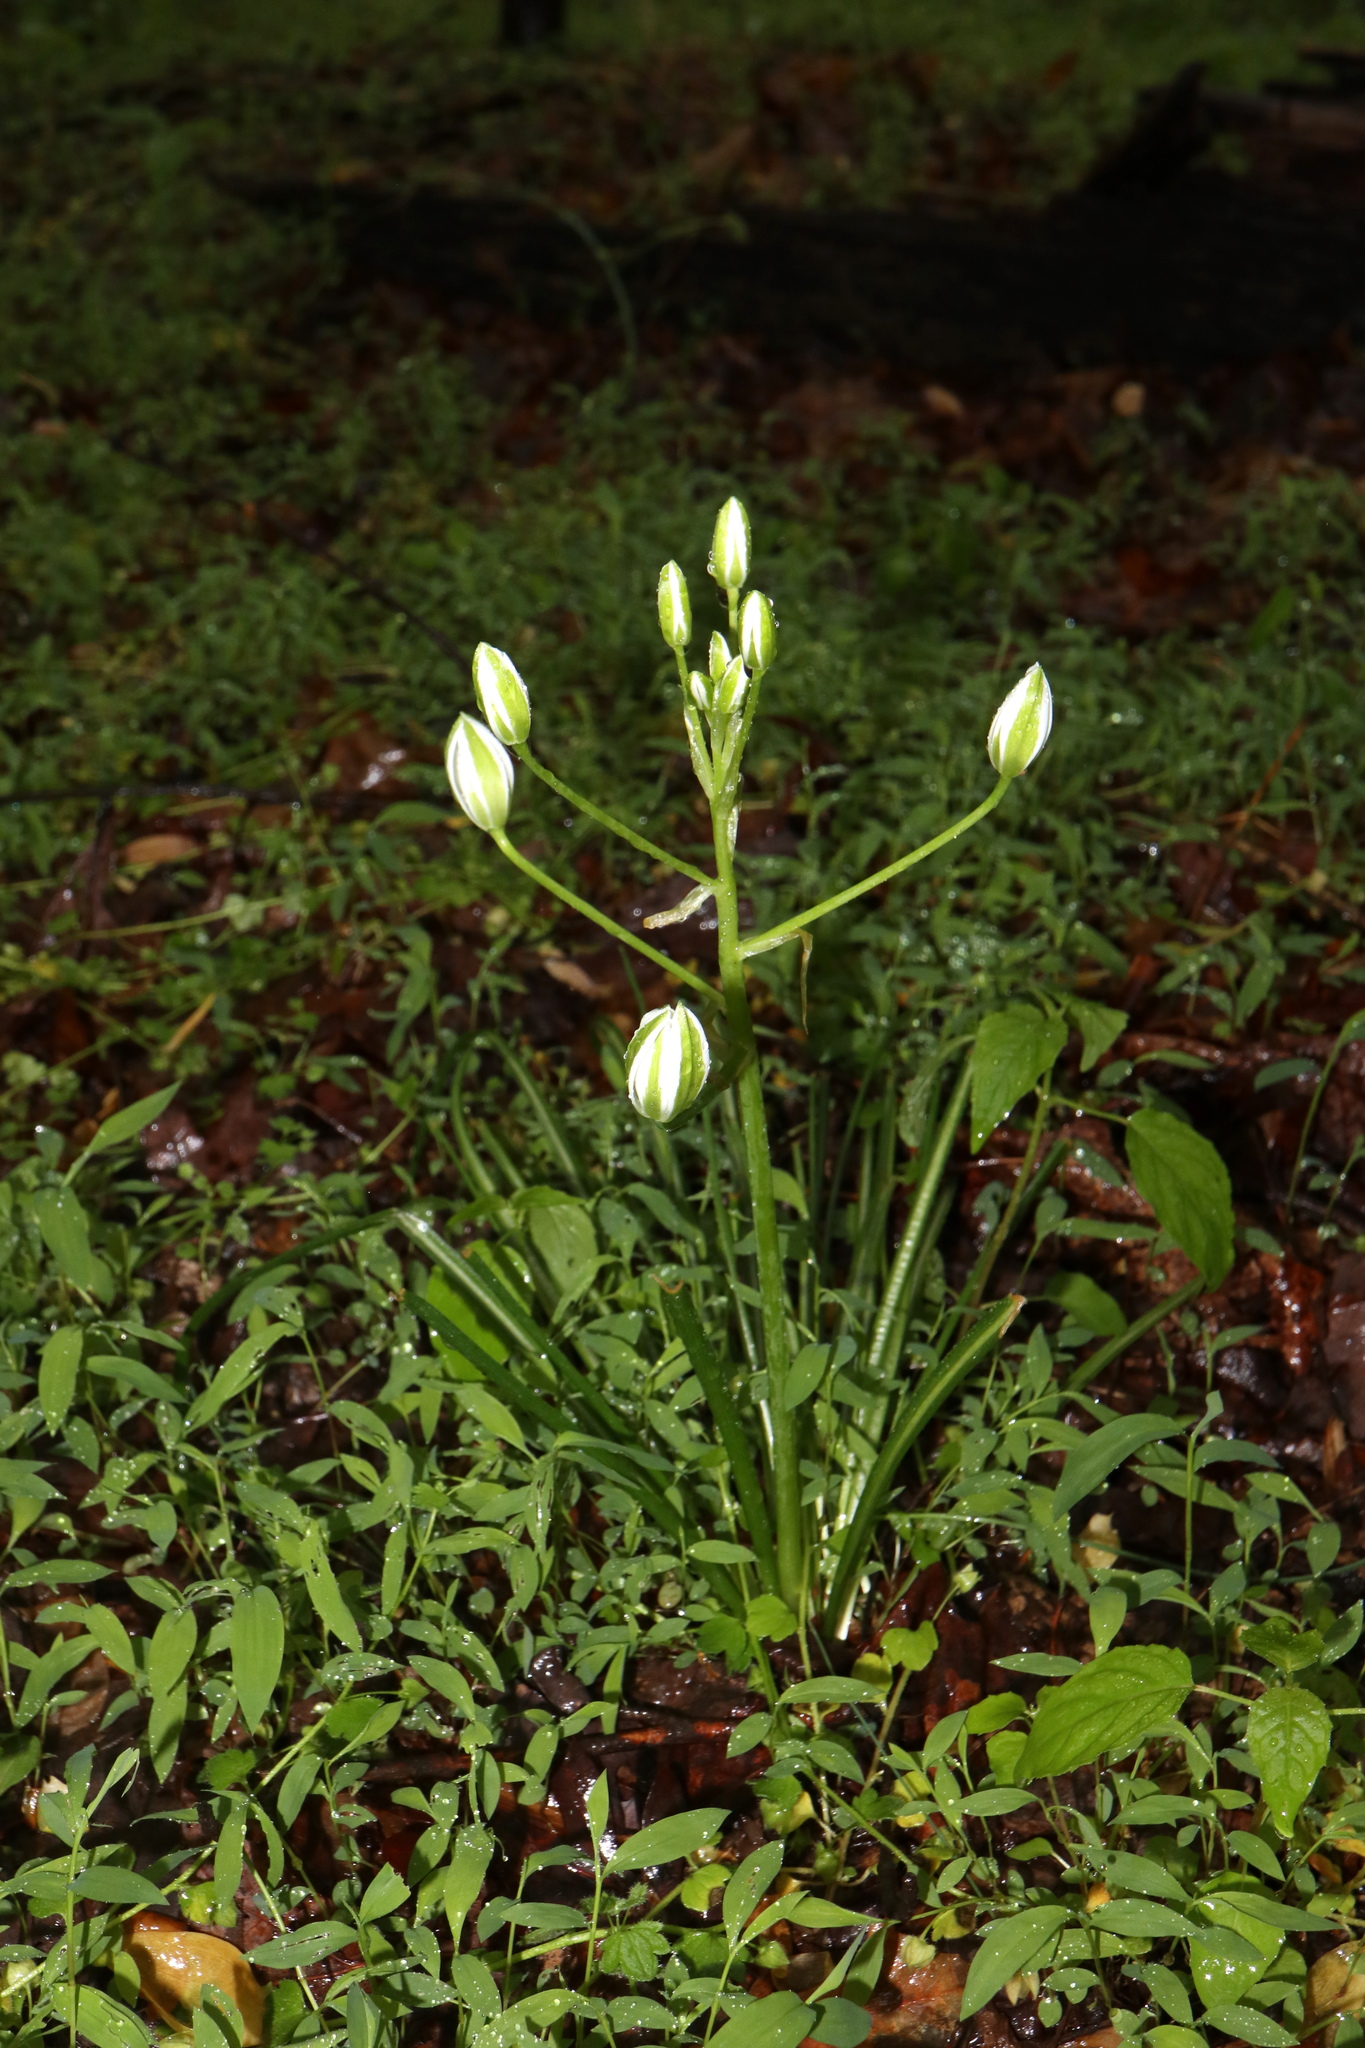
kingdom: Plantae
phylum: Tracheophyta
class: Liliopsida
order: Asparagales
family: Asparagaceae
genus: Ornithogalum
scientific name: Ornithogalum umbellatum
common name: Garden star-of-bethlehem
